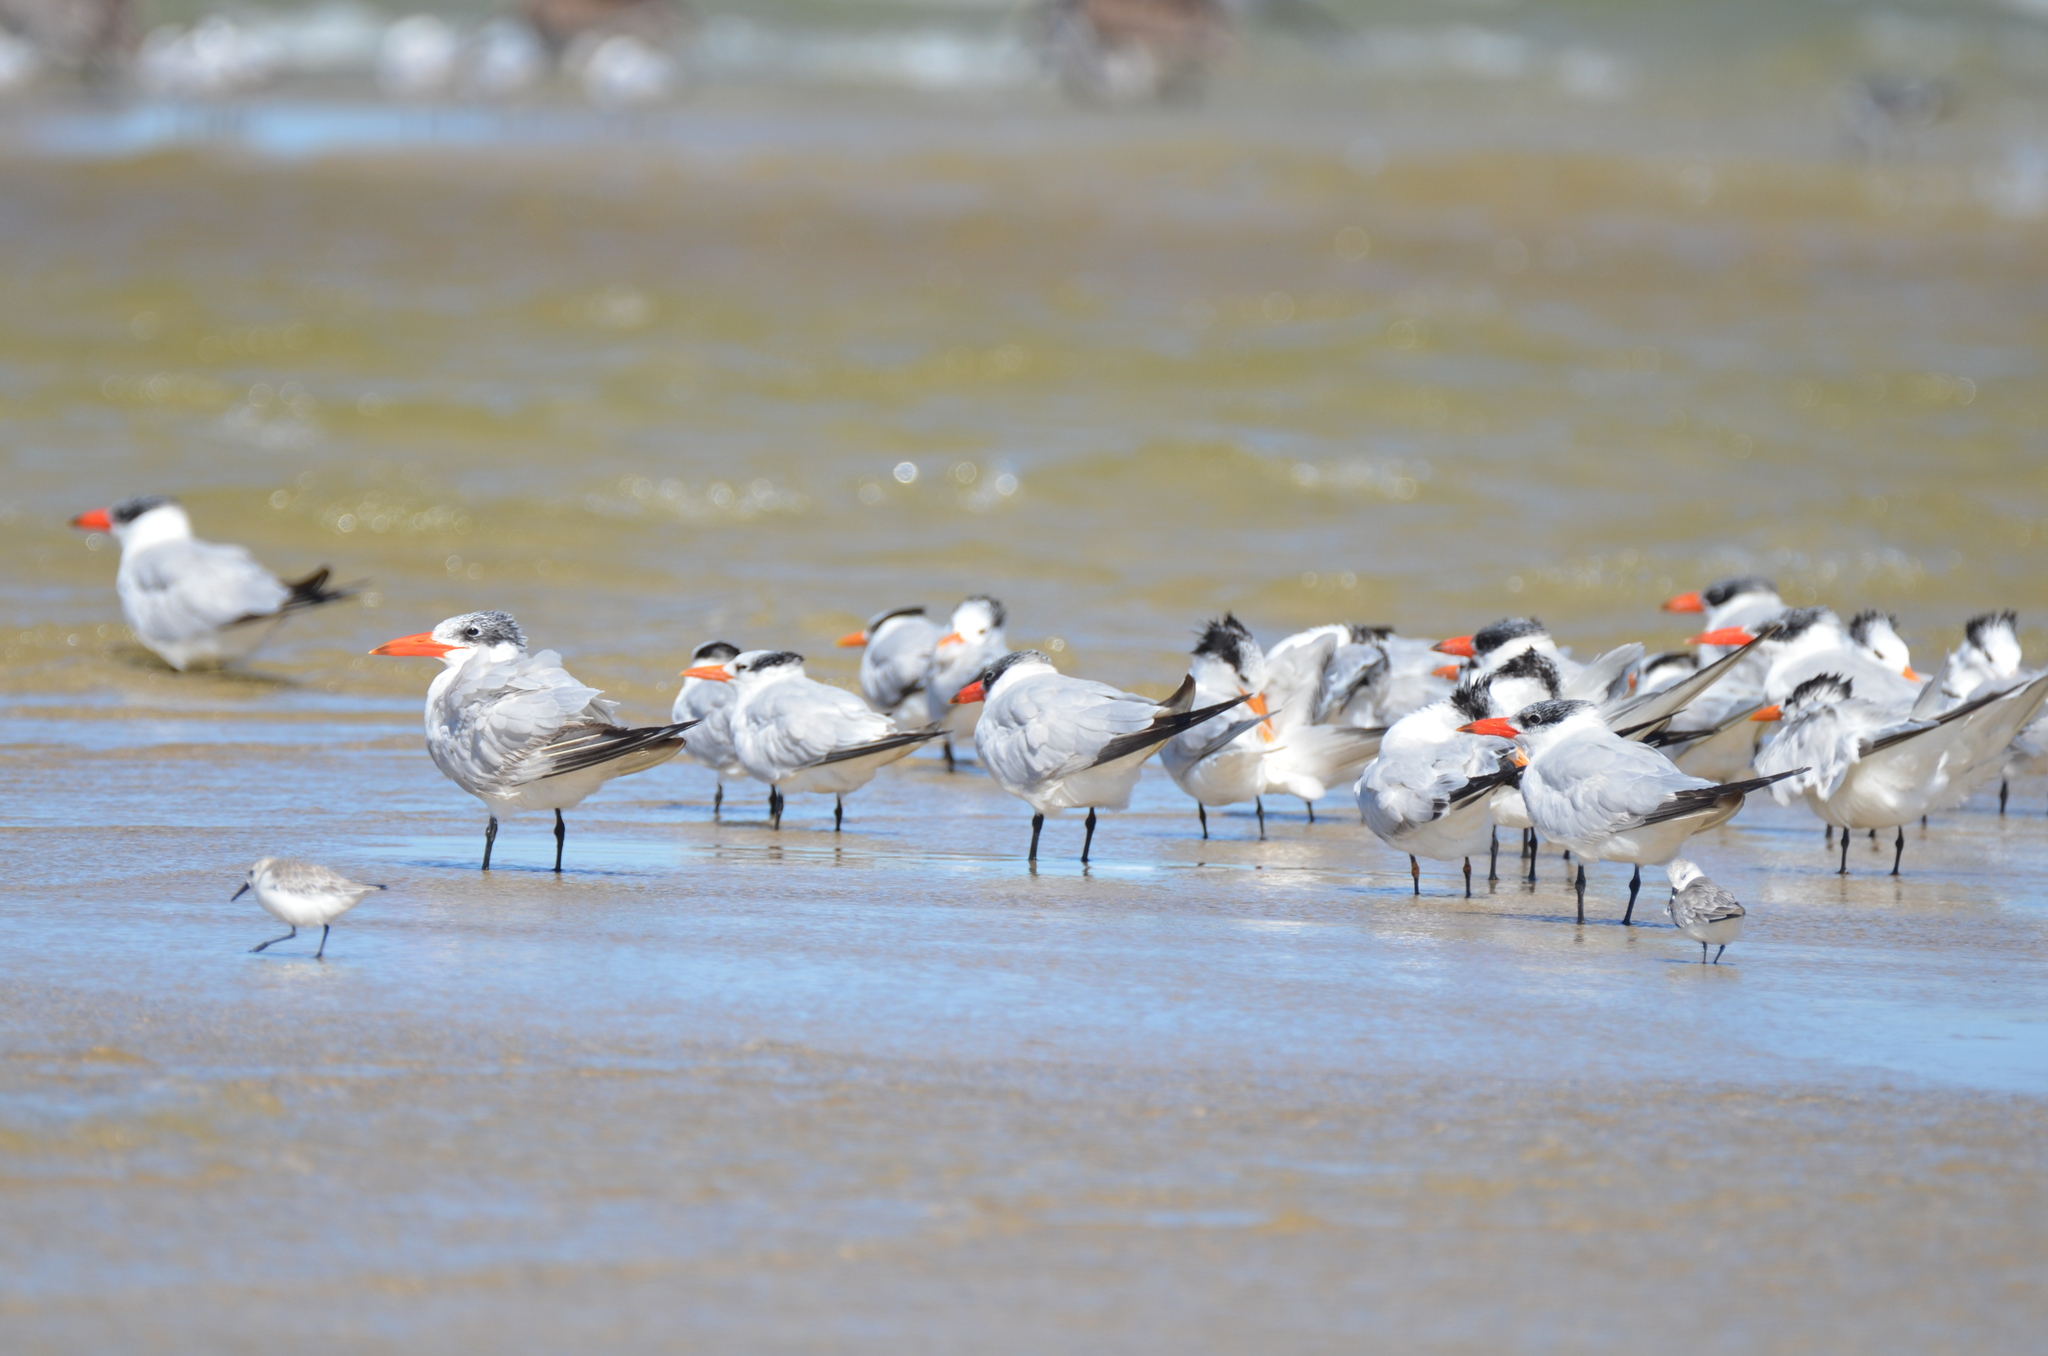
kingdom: Animalia
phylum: Chordata
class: Aves
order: Charadriiformes
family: Laridae
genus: Hydroprogne
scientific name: Hydroprogne caspia
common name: Caspian tern
